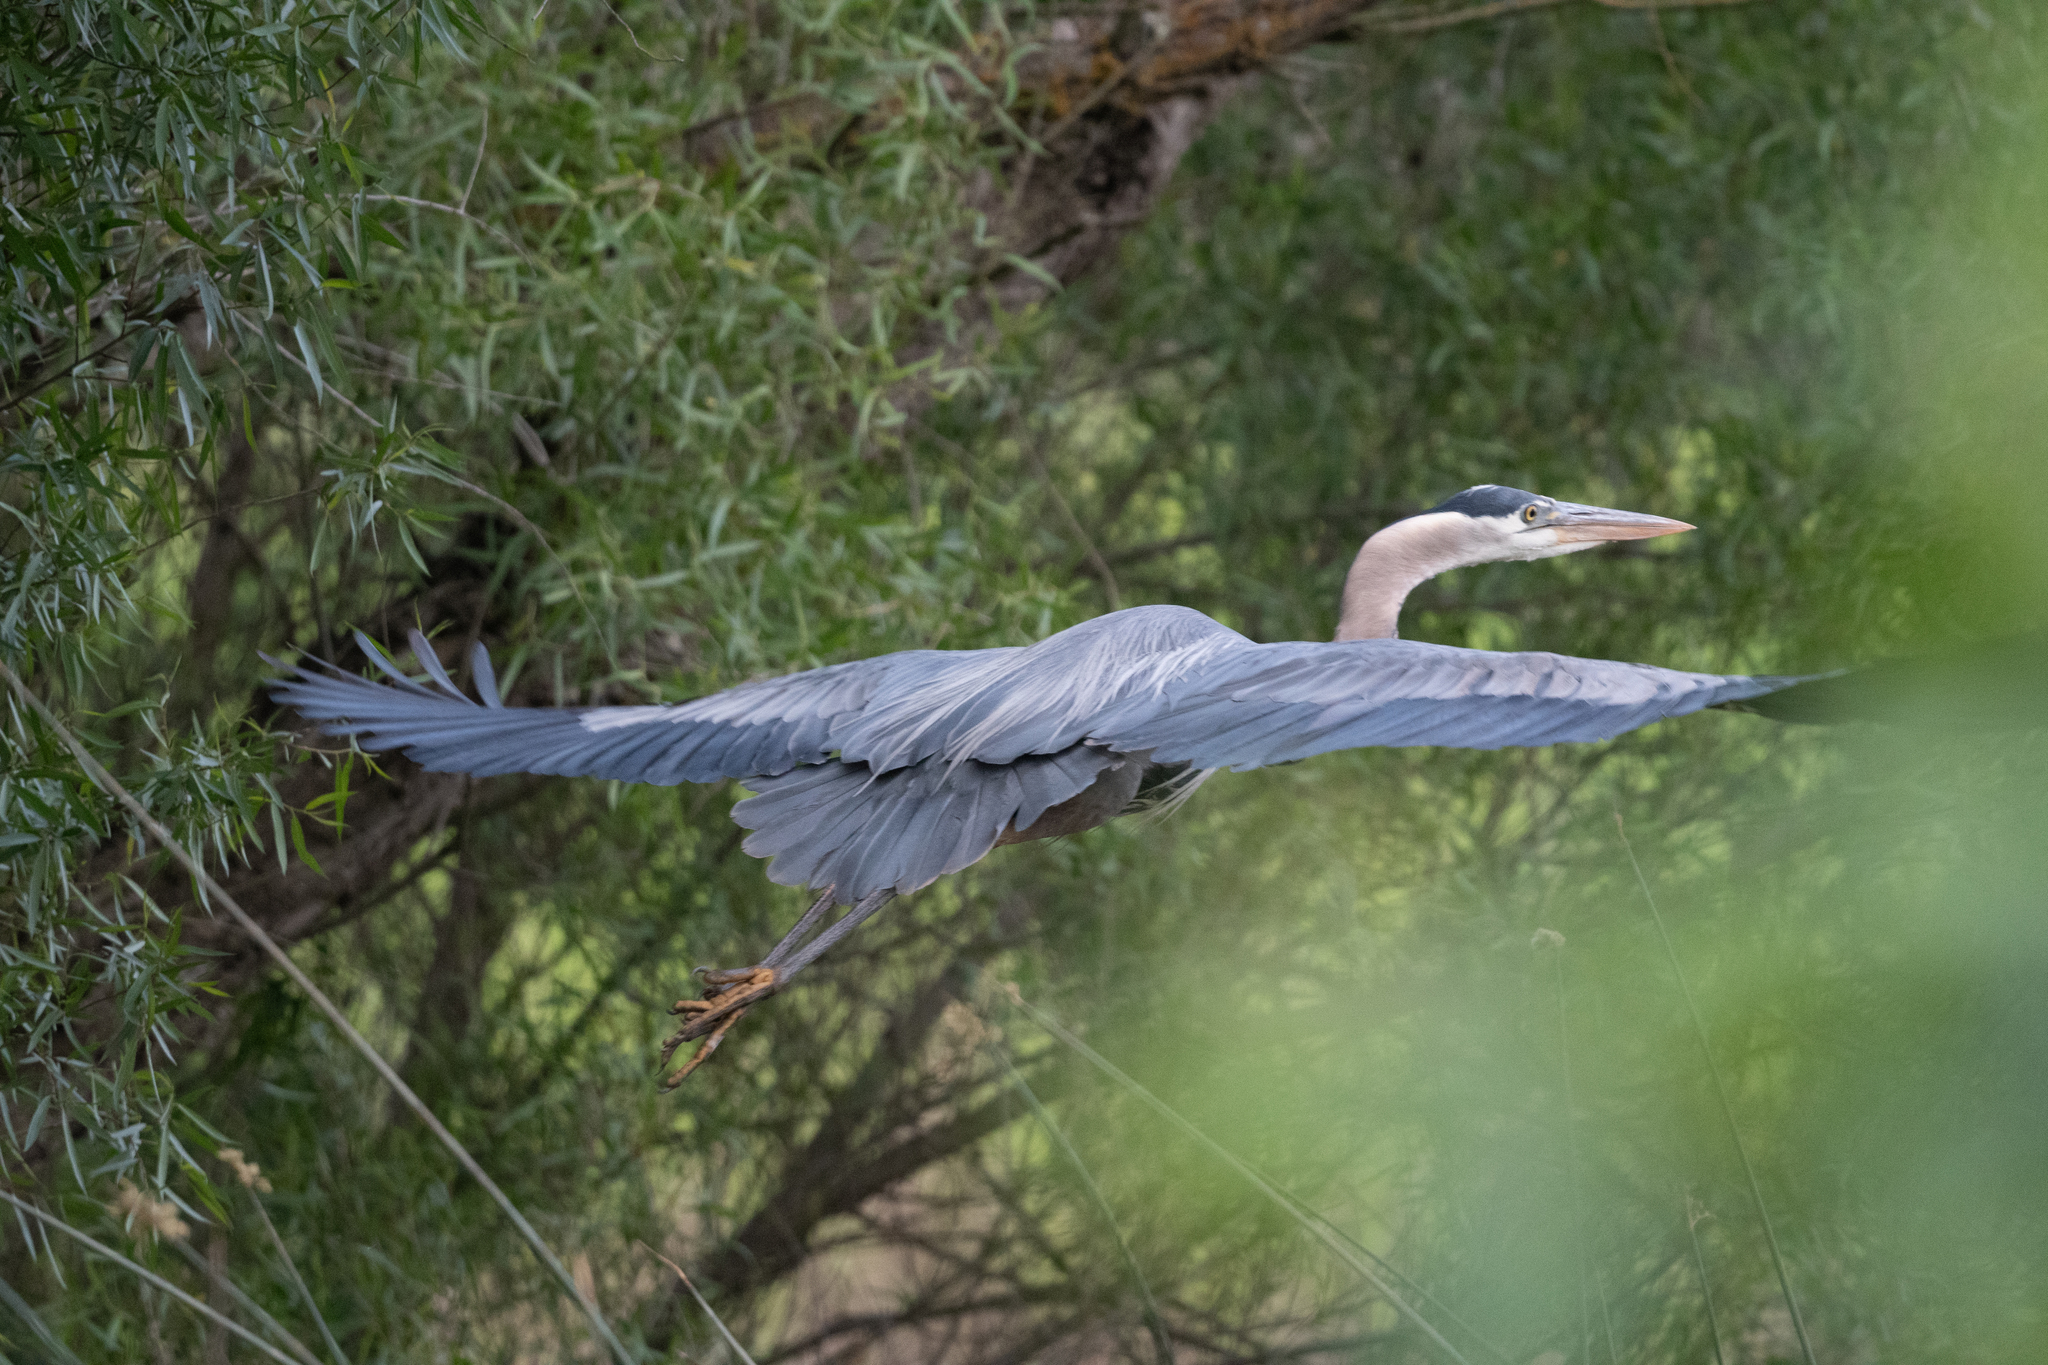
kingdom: Animalia
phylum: Chordata
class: Aves
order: Pelecaniformes
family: Ardeidae
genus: Ardea
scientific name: Ardea herodias
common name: Great blue heron
